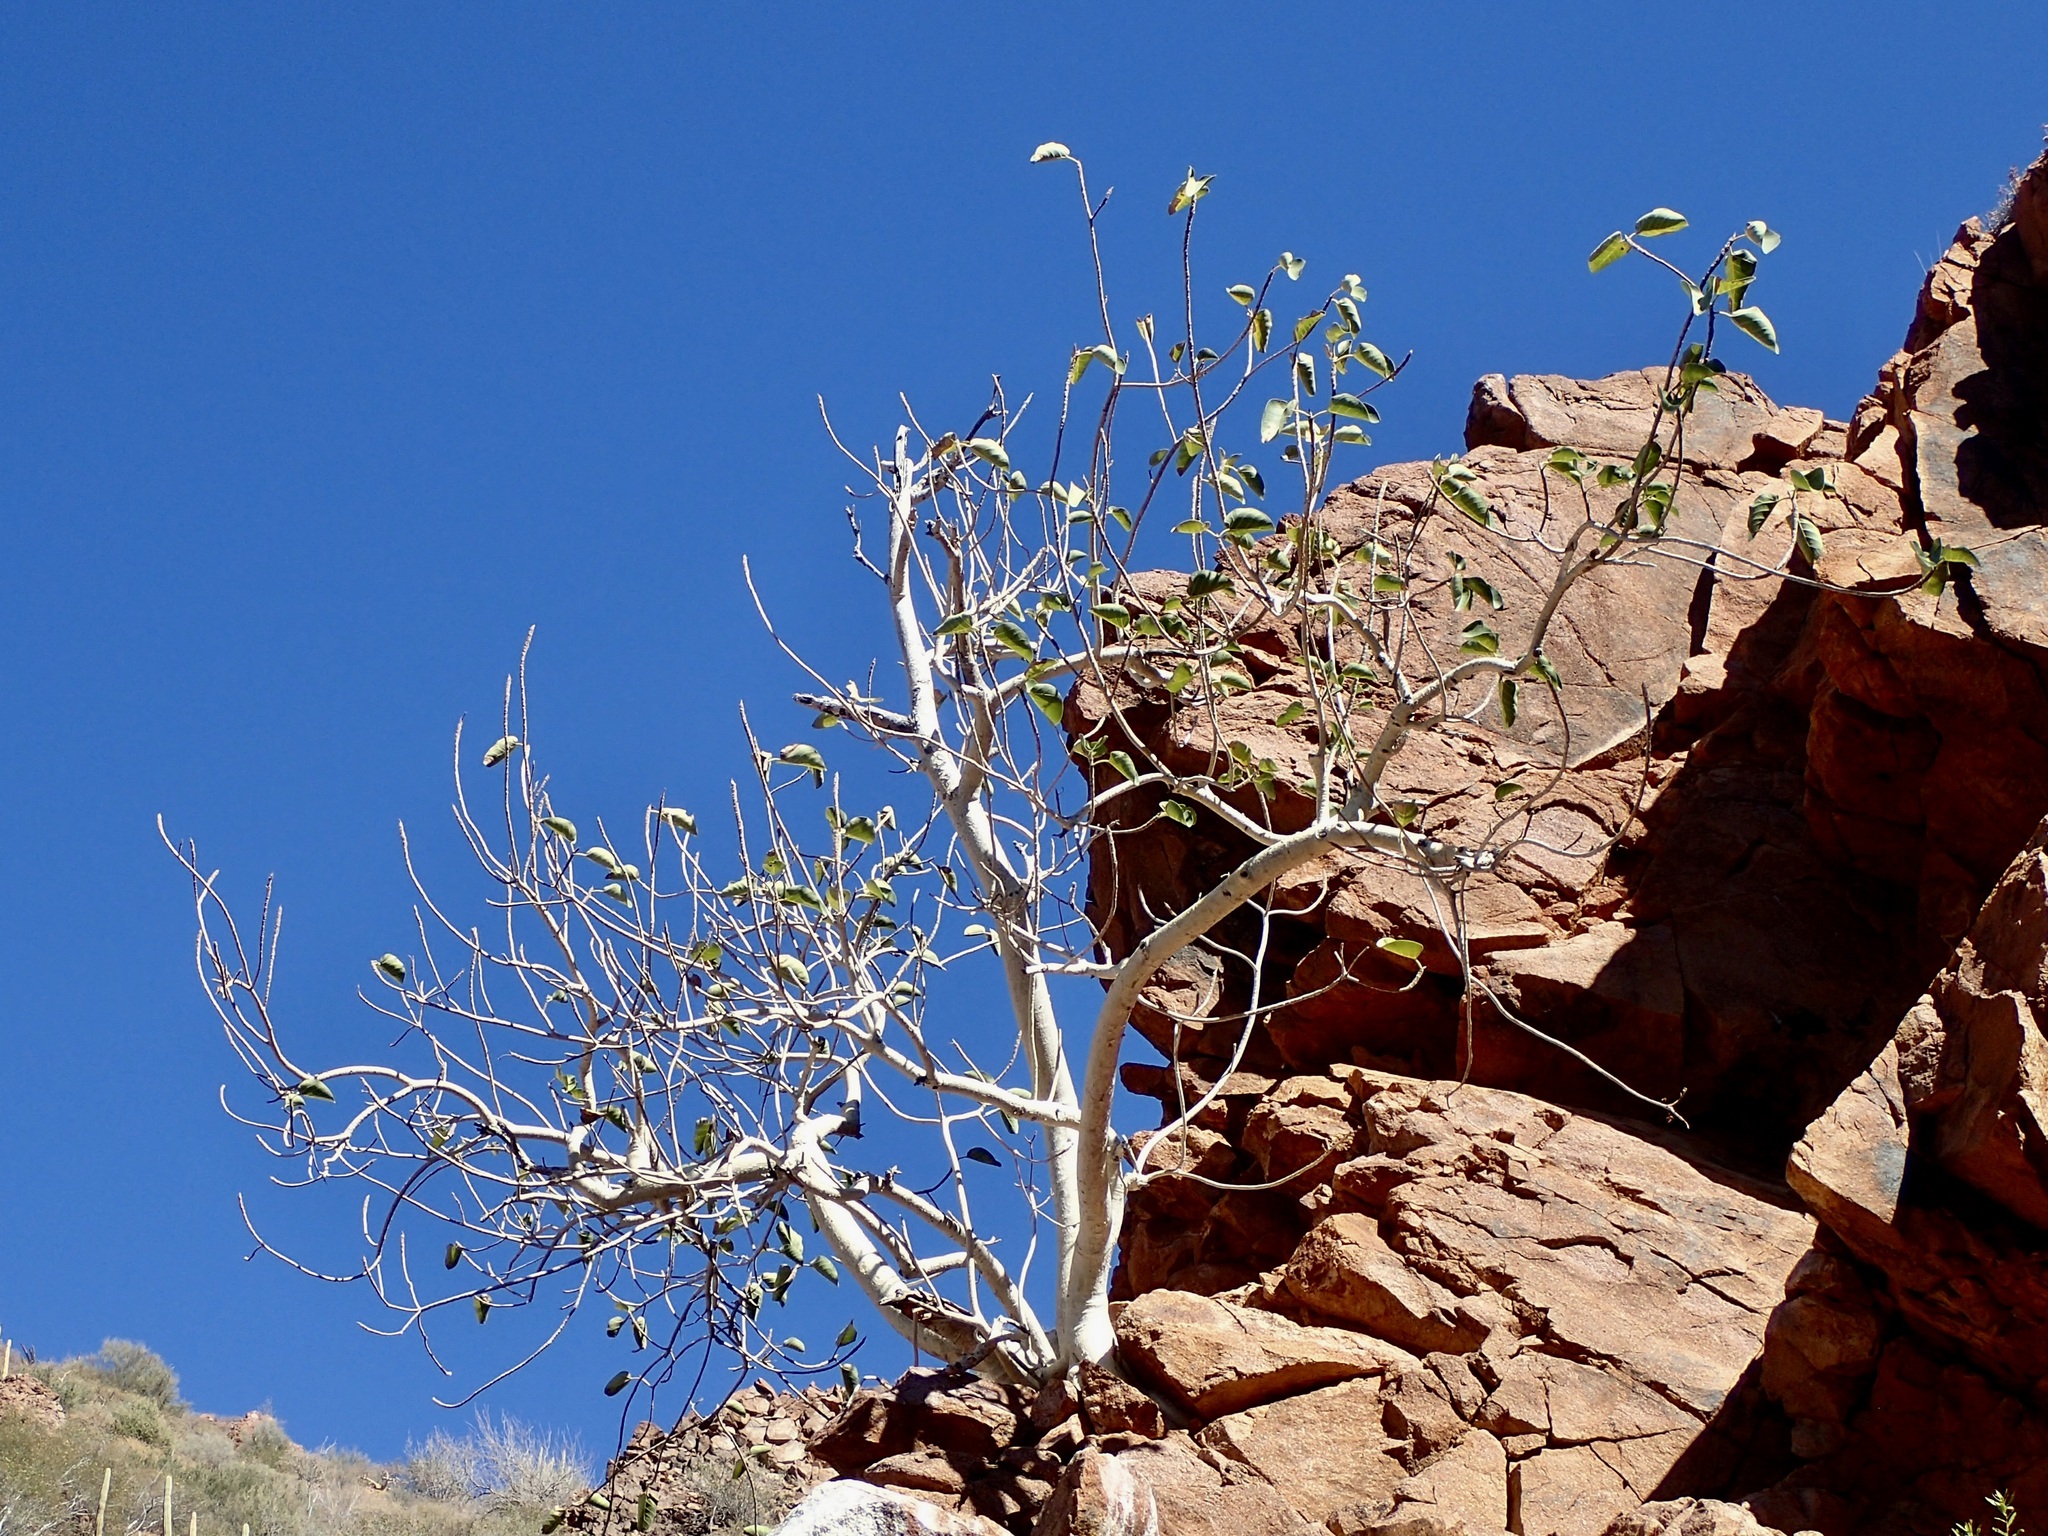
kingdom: Plantae
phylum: Tracheophyta
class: Magnoliopsida
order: Rosales
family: Moraceae
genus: Ficus
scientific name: Ficus petiolaris
